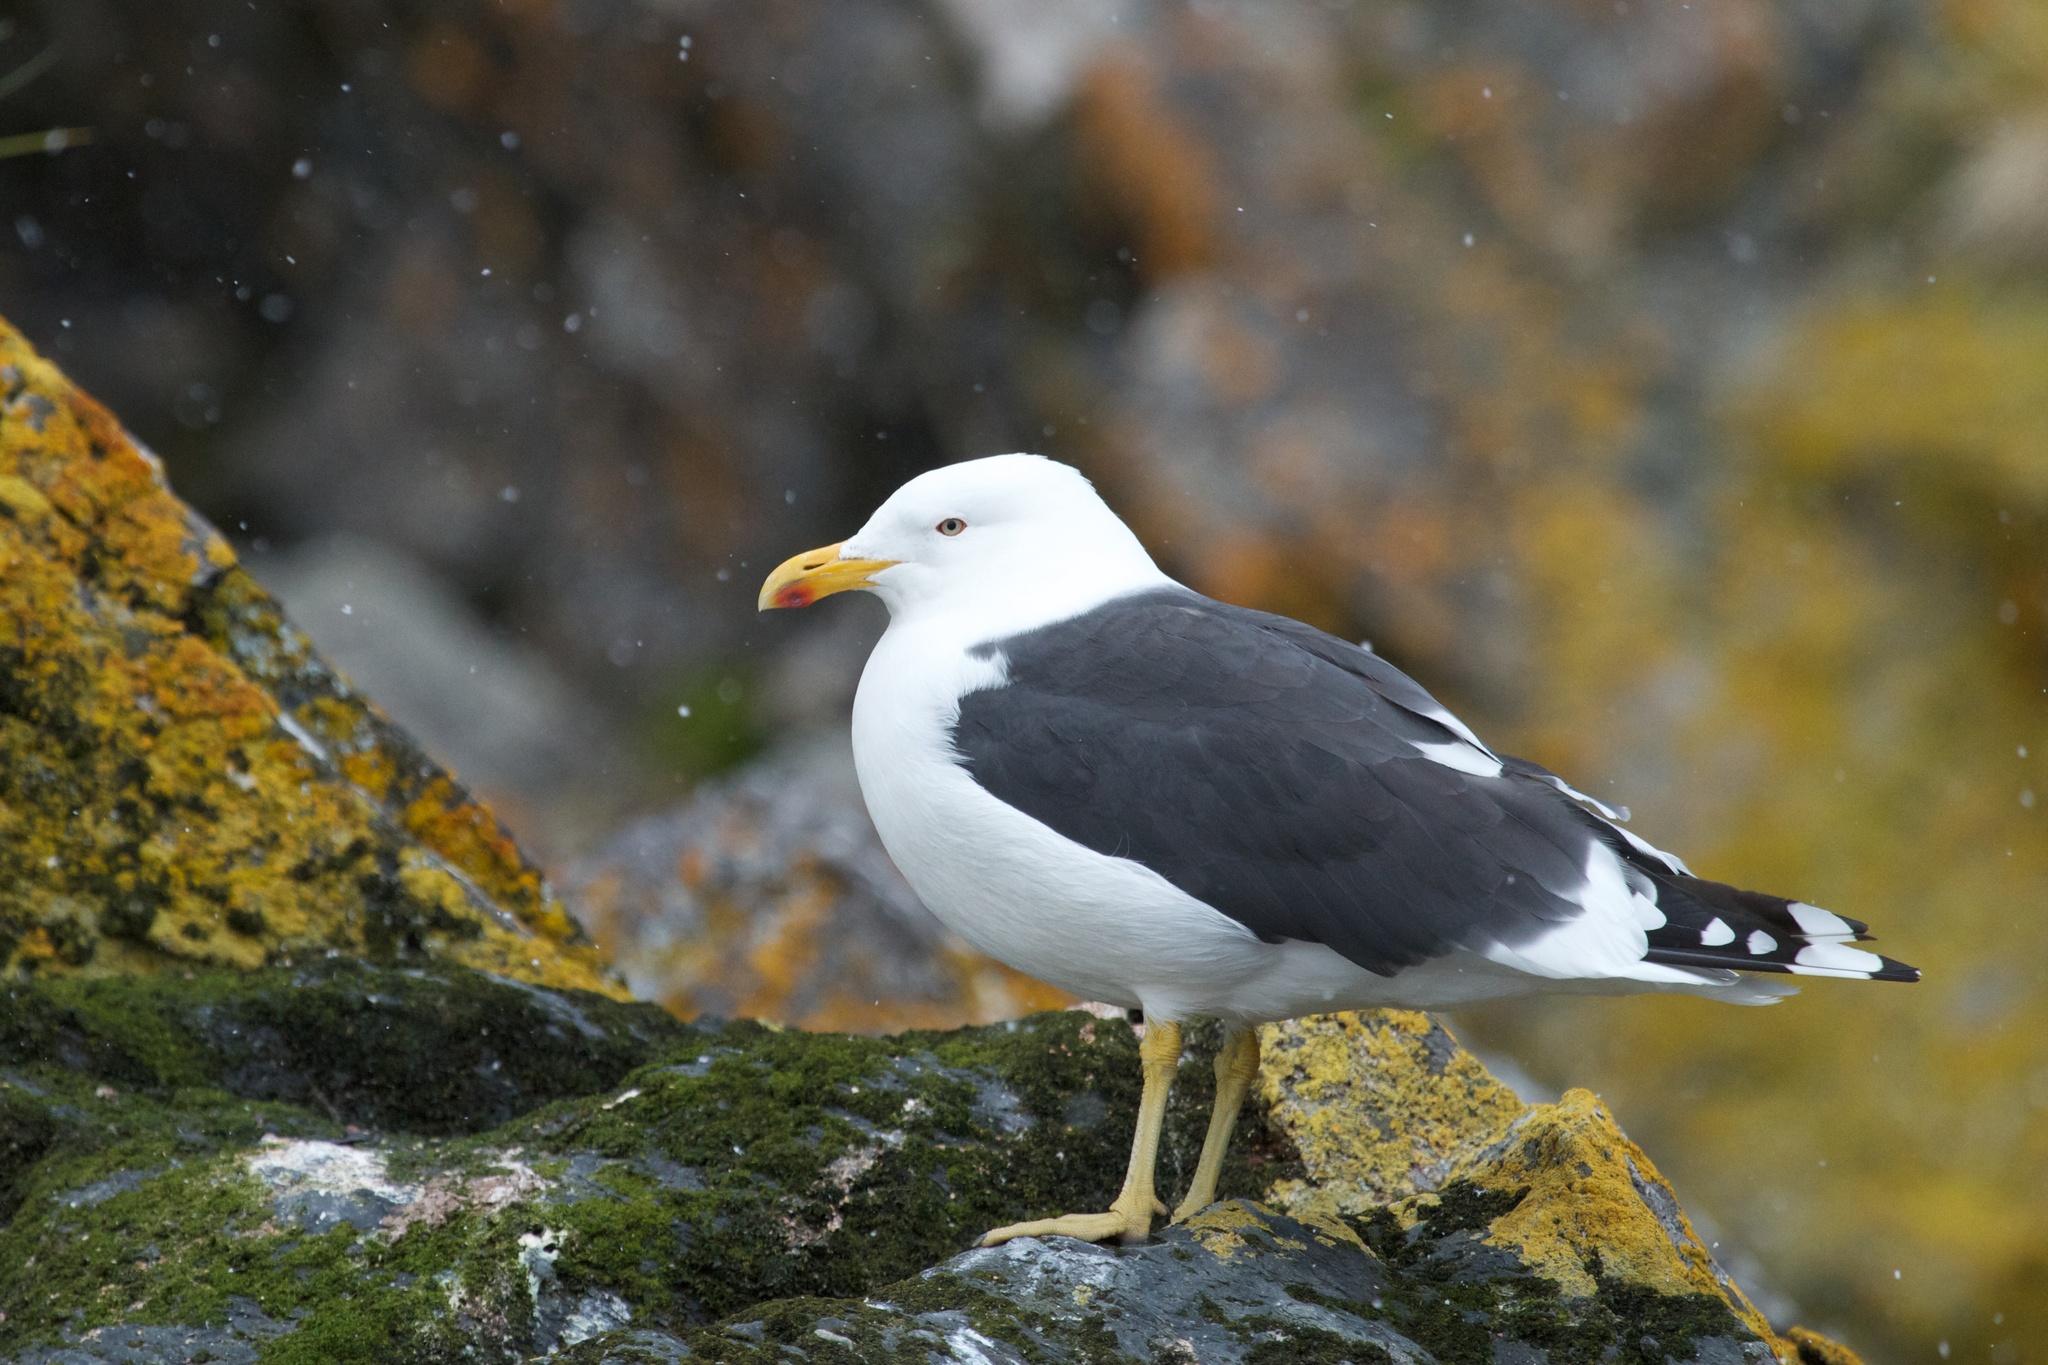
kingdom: Animalia
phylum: Chordata
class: Aves
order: Charadriiformes
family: Laridae
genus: Larus
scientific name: Larus dominicanus
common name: Kelp gull
